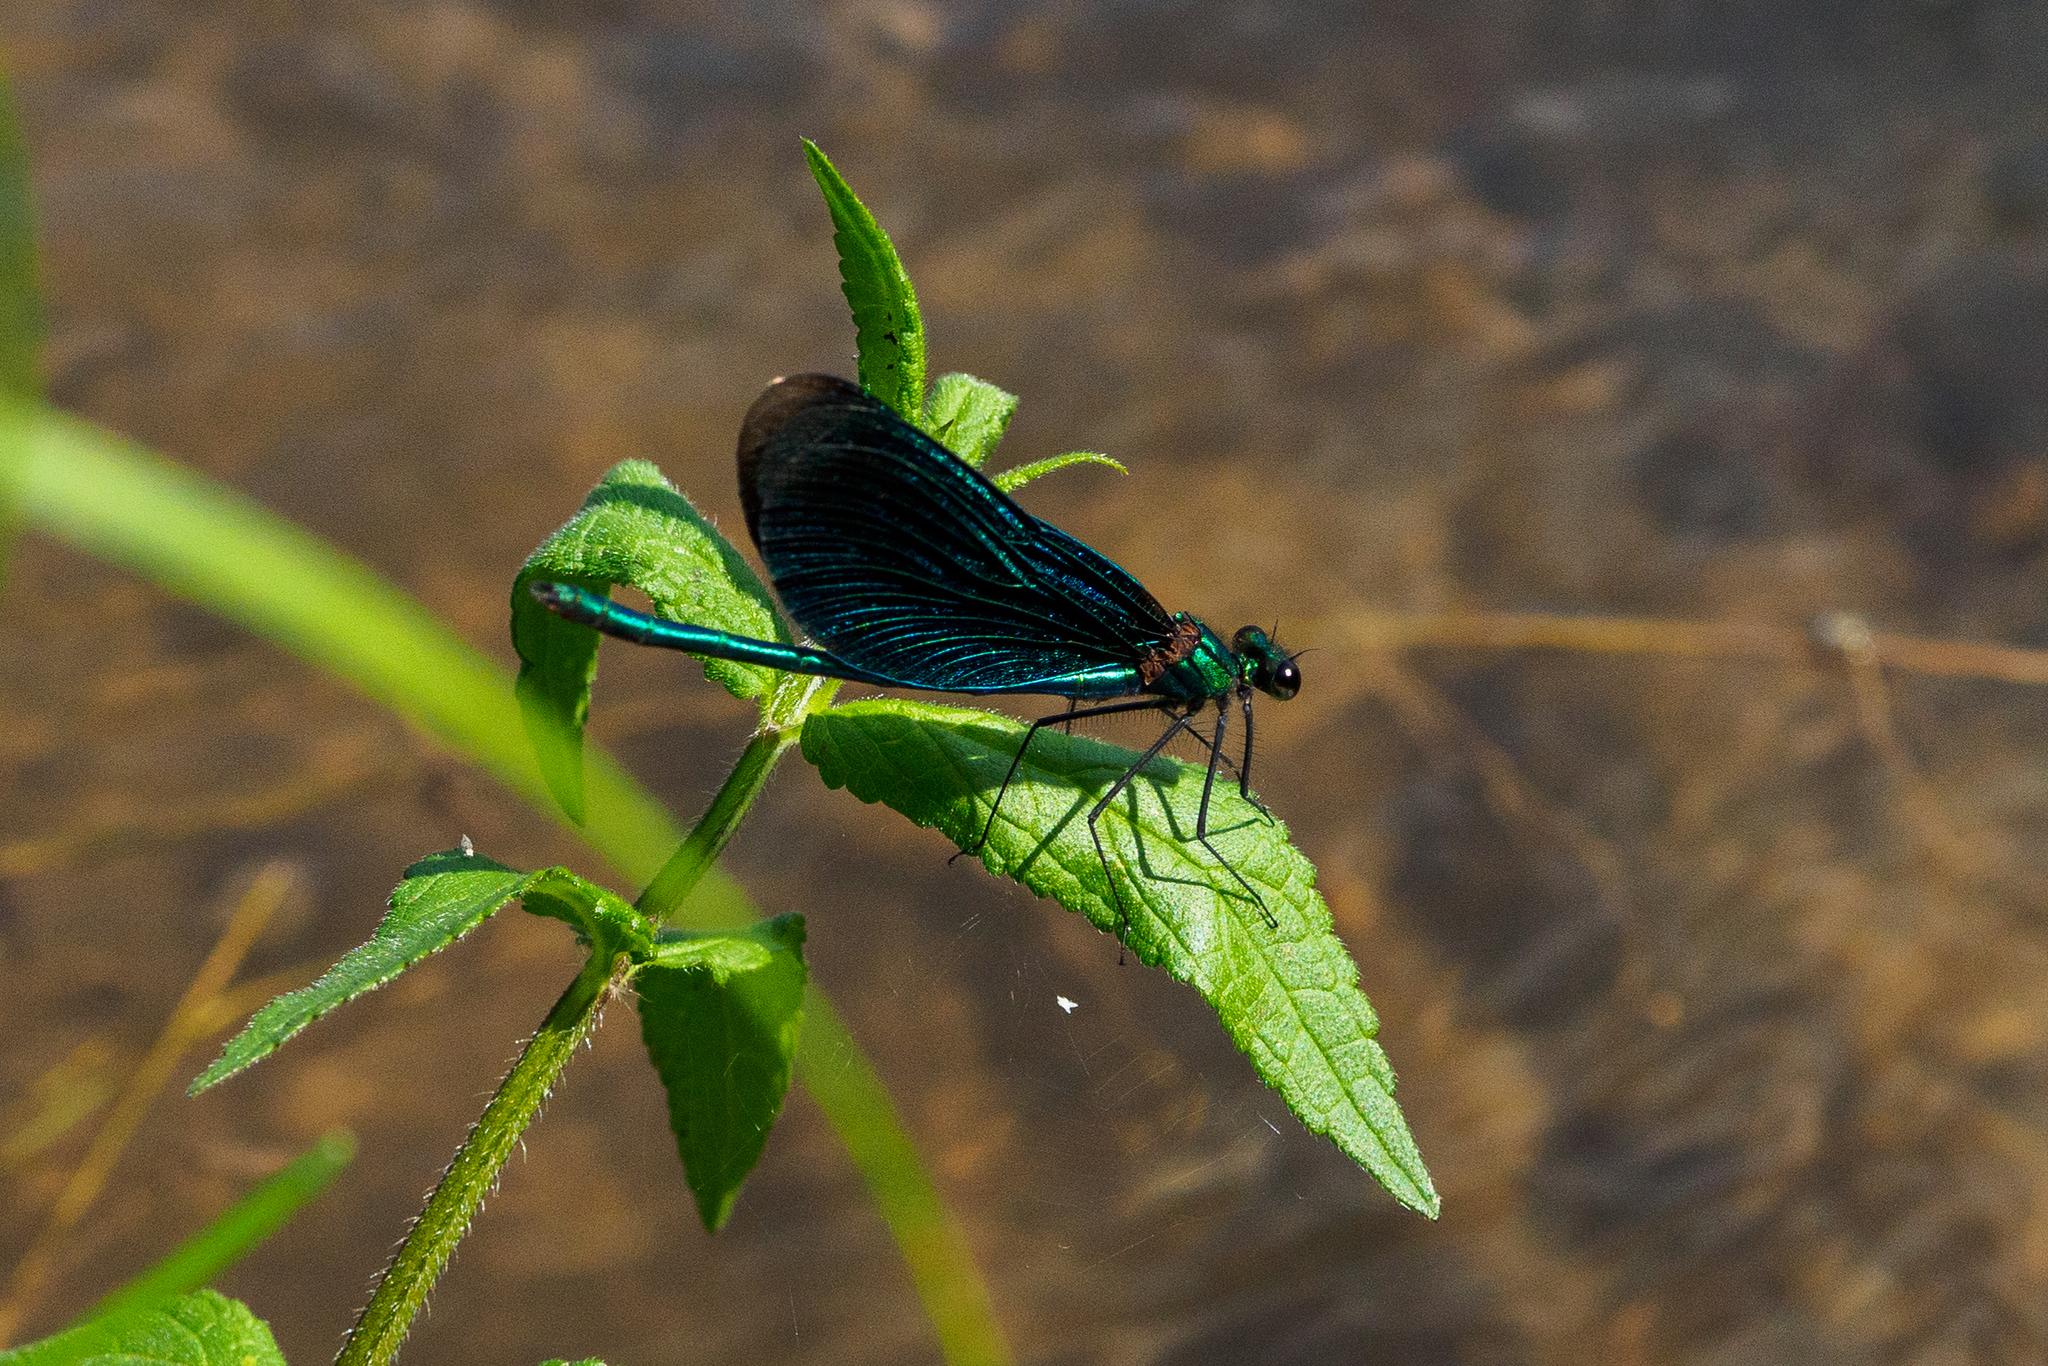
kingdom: Animalia
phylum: Arthropoda
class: Insecta
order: Odonata
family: Calopterygidae
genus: Calopteryx
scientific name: Calopteryx virgo
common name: Beautiful demoiselle
